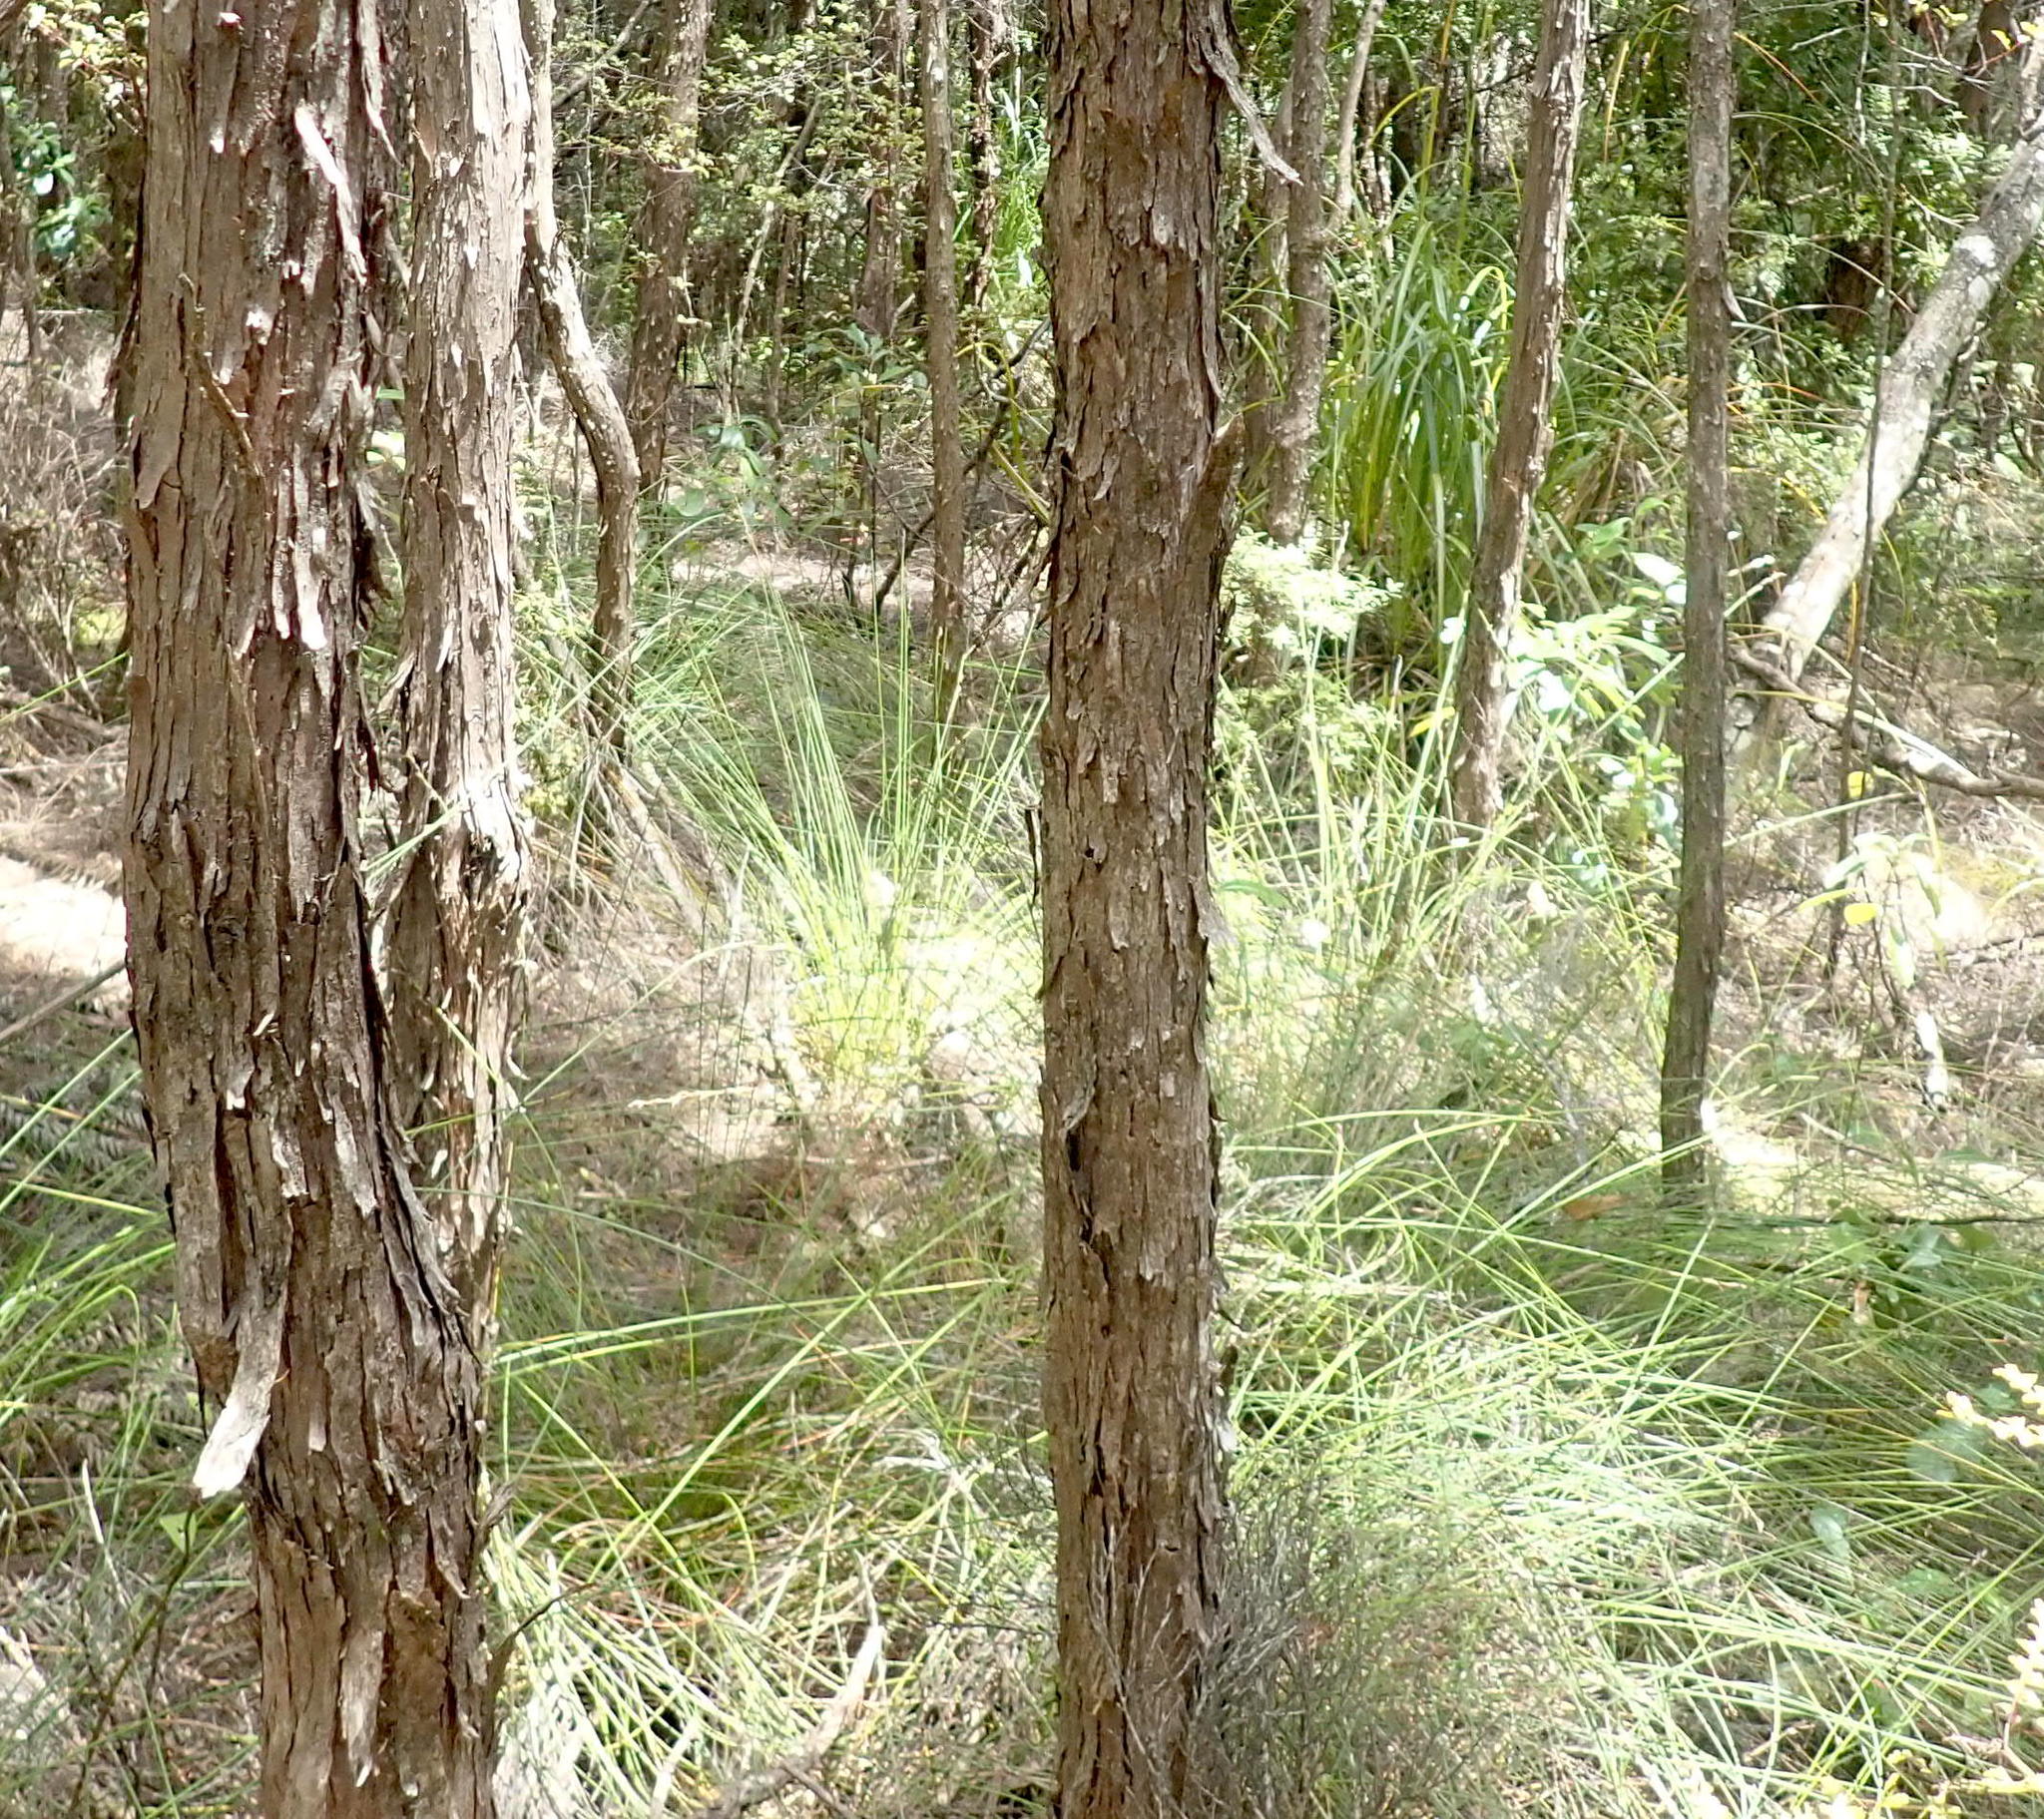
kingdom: Plantae
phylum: Tracheophyta
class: Liliopsida
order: Poales
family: Cyperaceae
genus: Schoenus
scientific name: Schoenus tendo
